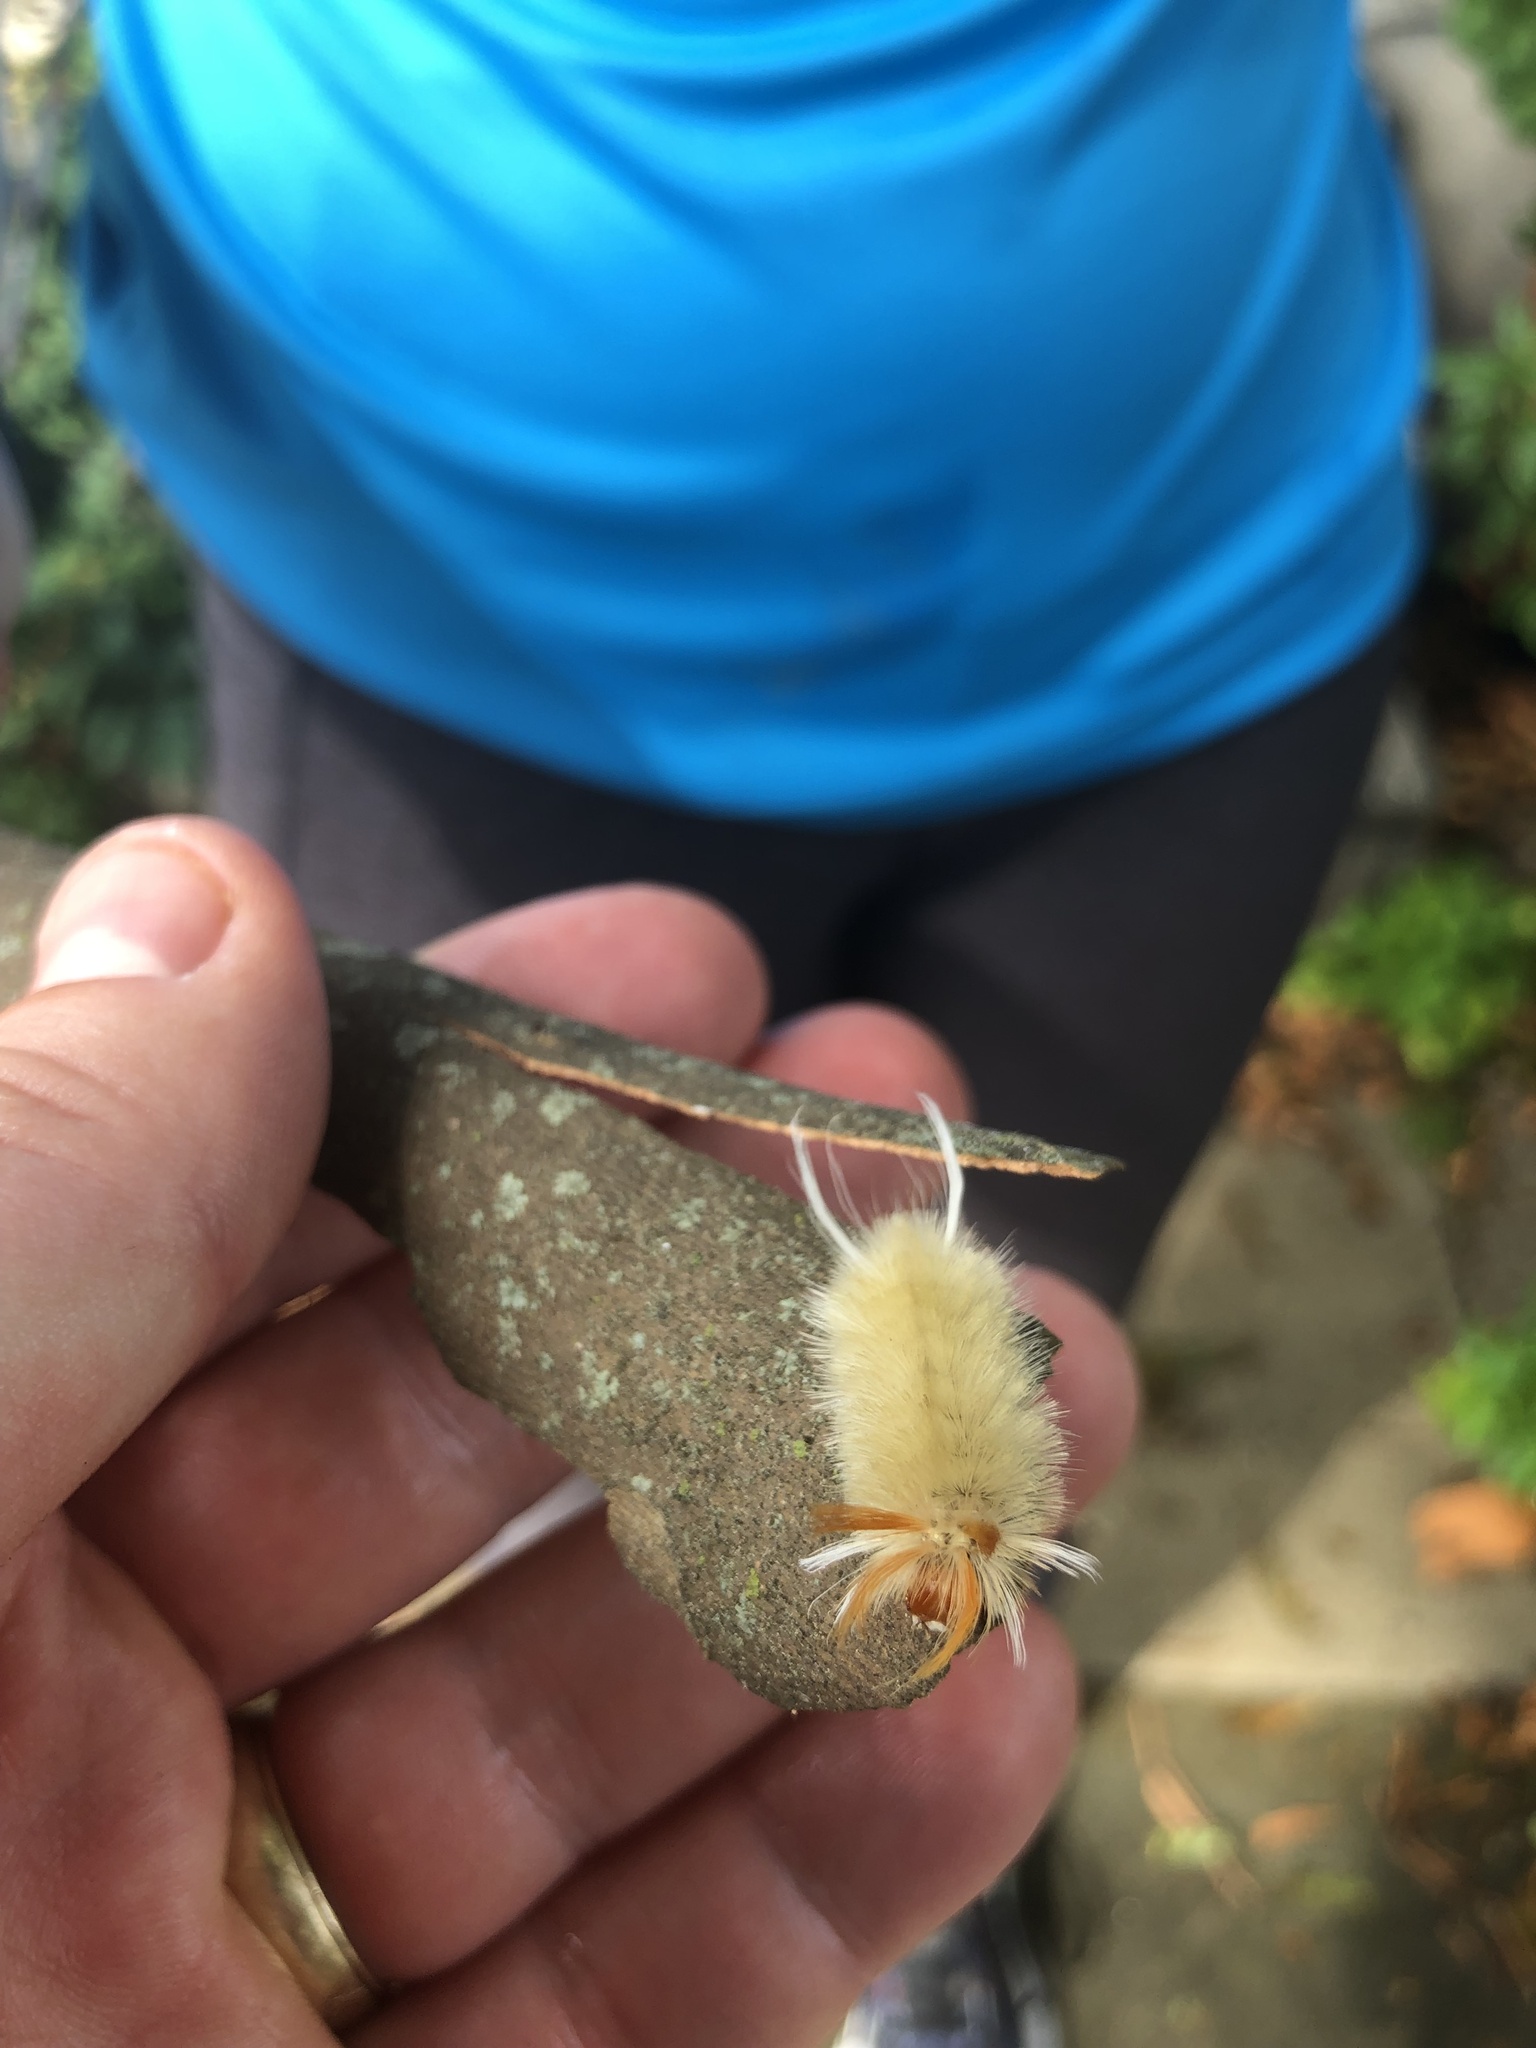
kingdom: Animalia
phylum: Arthropoda
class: Insecta
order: Lepidoptera
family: Erebidae
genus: Halysidota
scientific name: Halysidota harrisii
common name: Sycamore tussock moth
